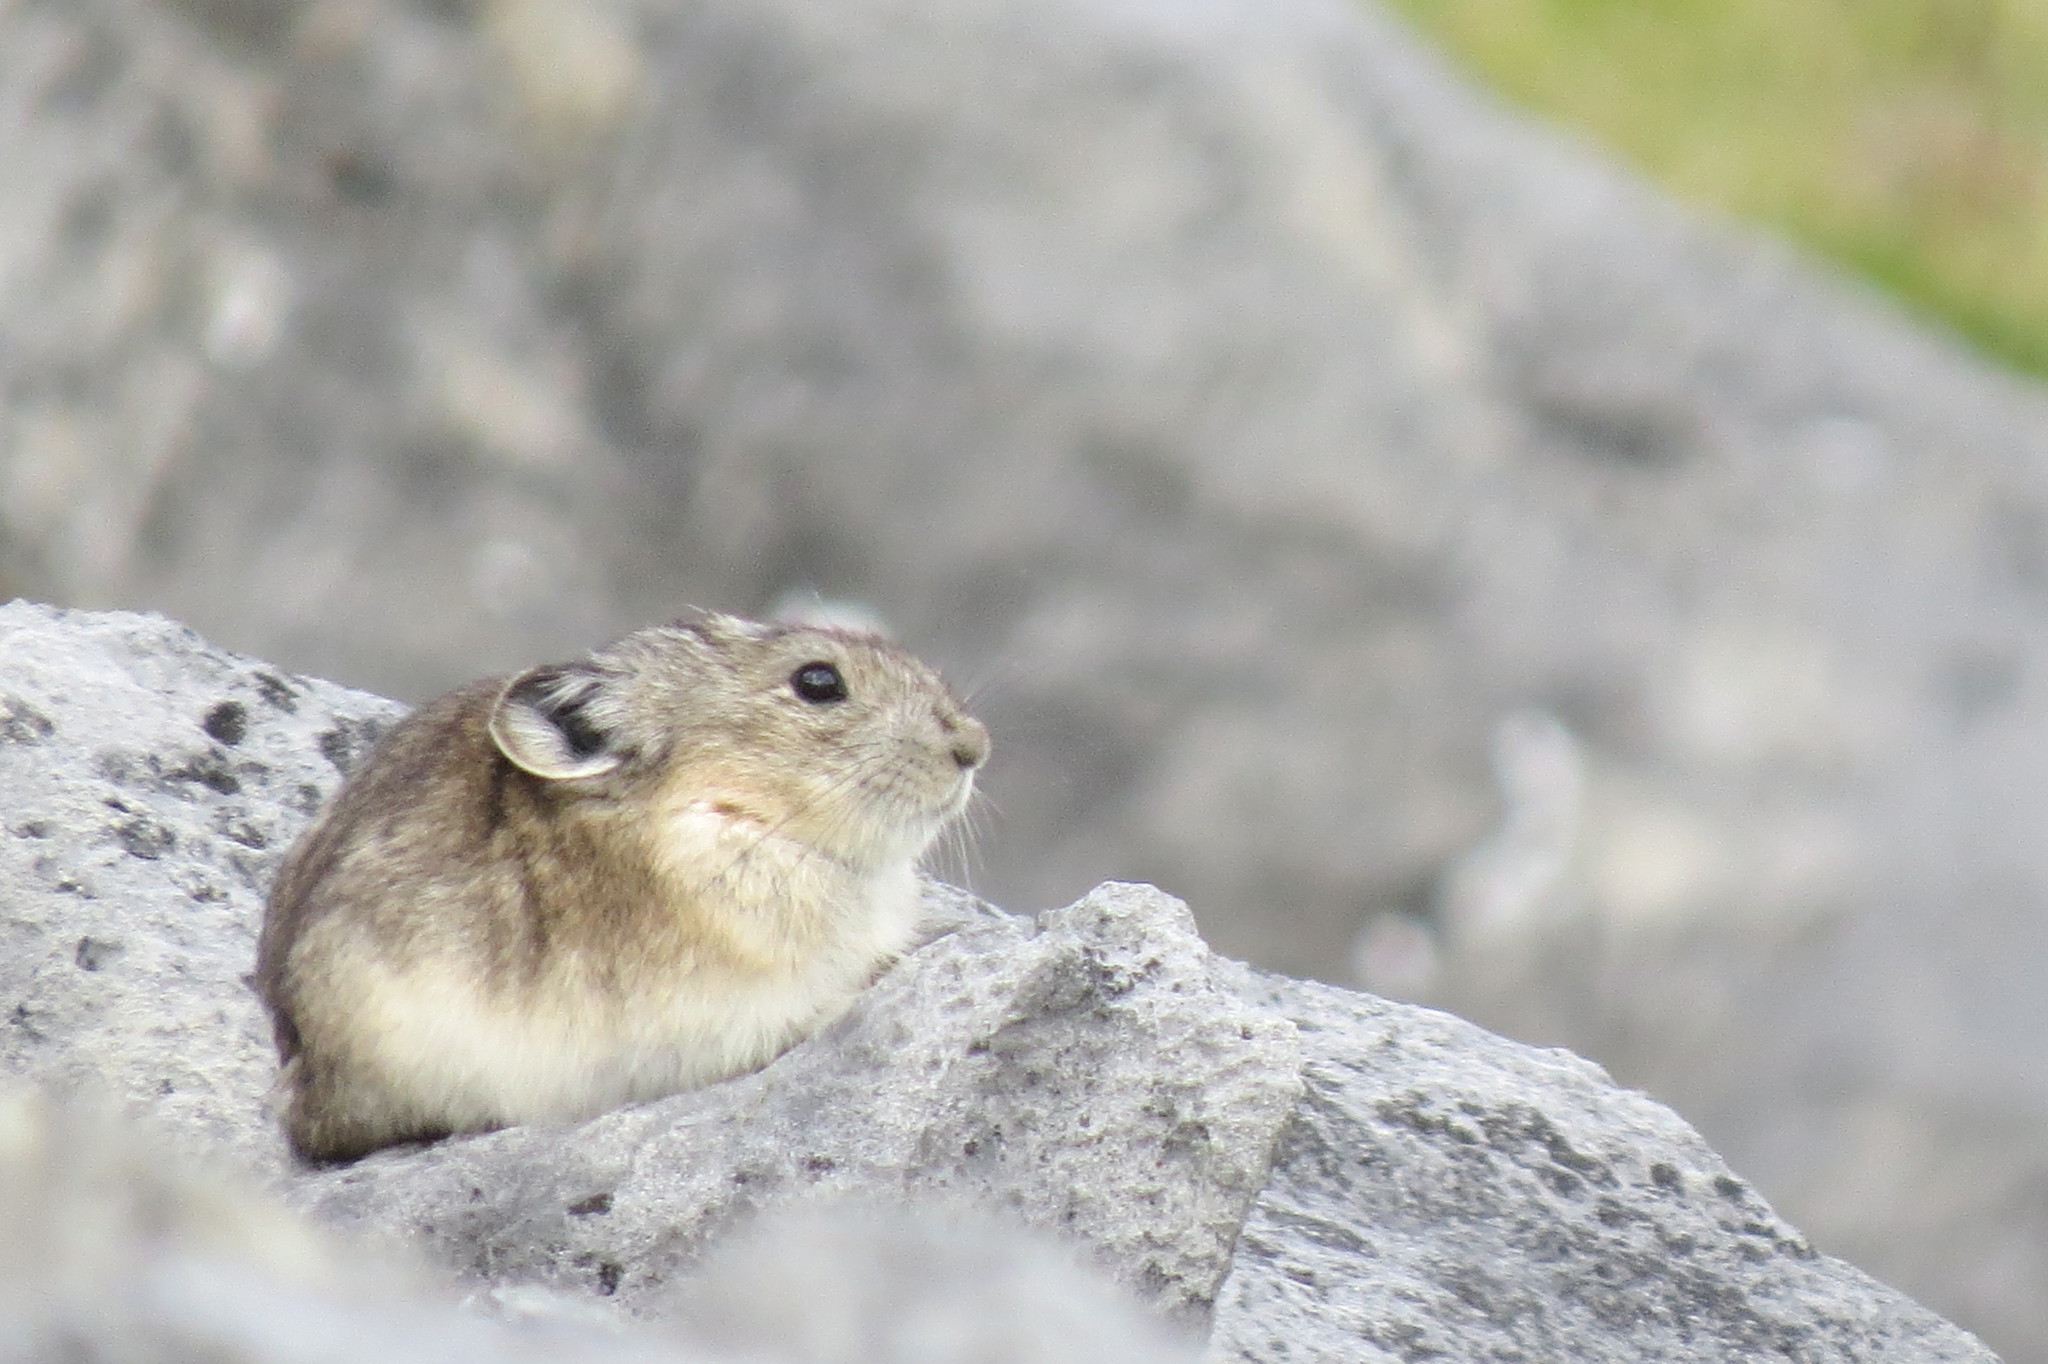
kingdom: Animalia
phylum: Chordata
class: Mammalia
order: Lagomorpha
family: Ochotonidae
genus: Ochotona
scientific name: Ochotona collaris
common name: Collared pika
